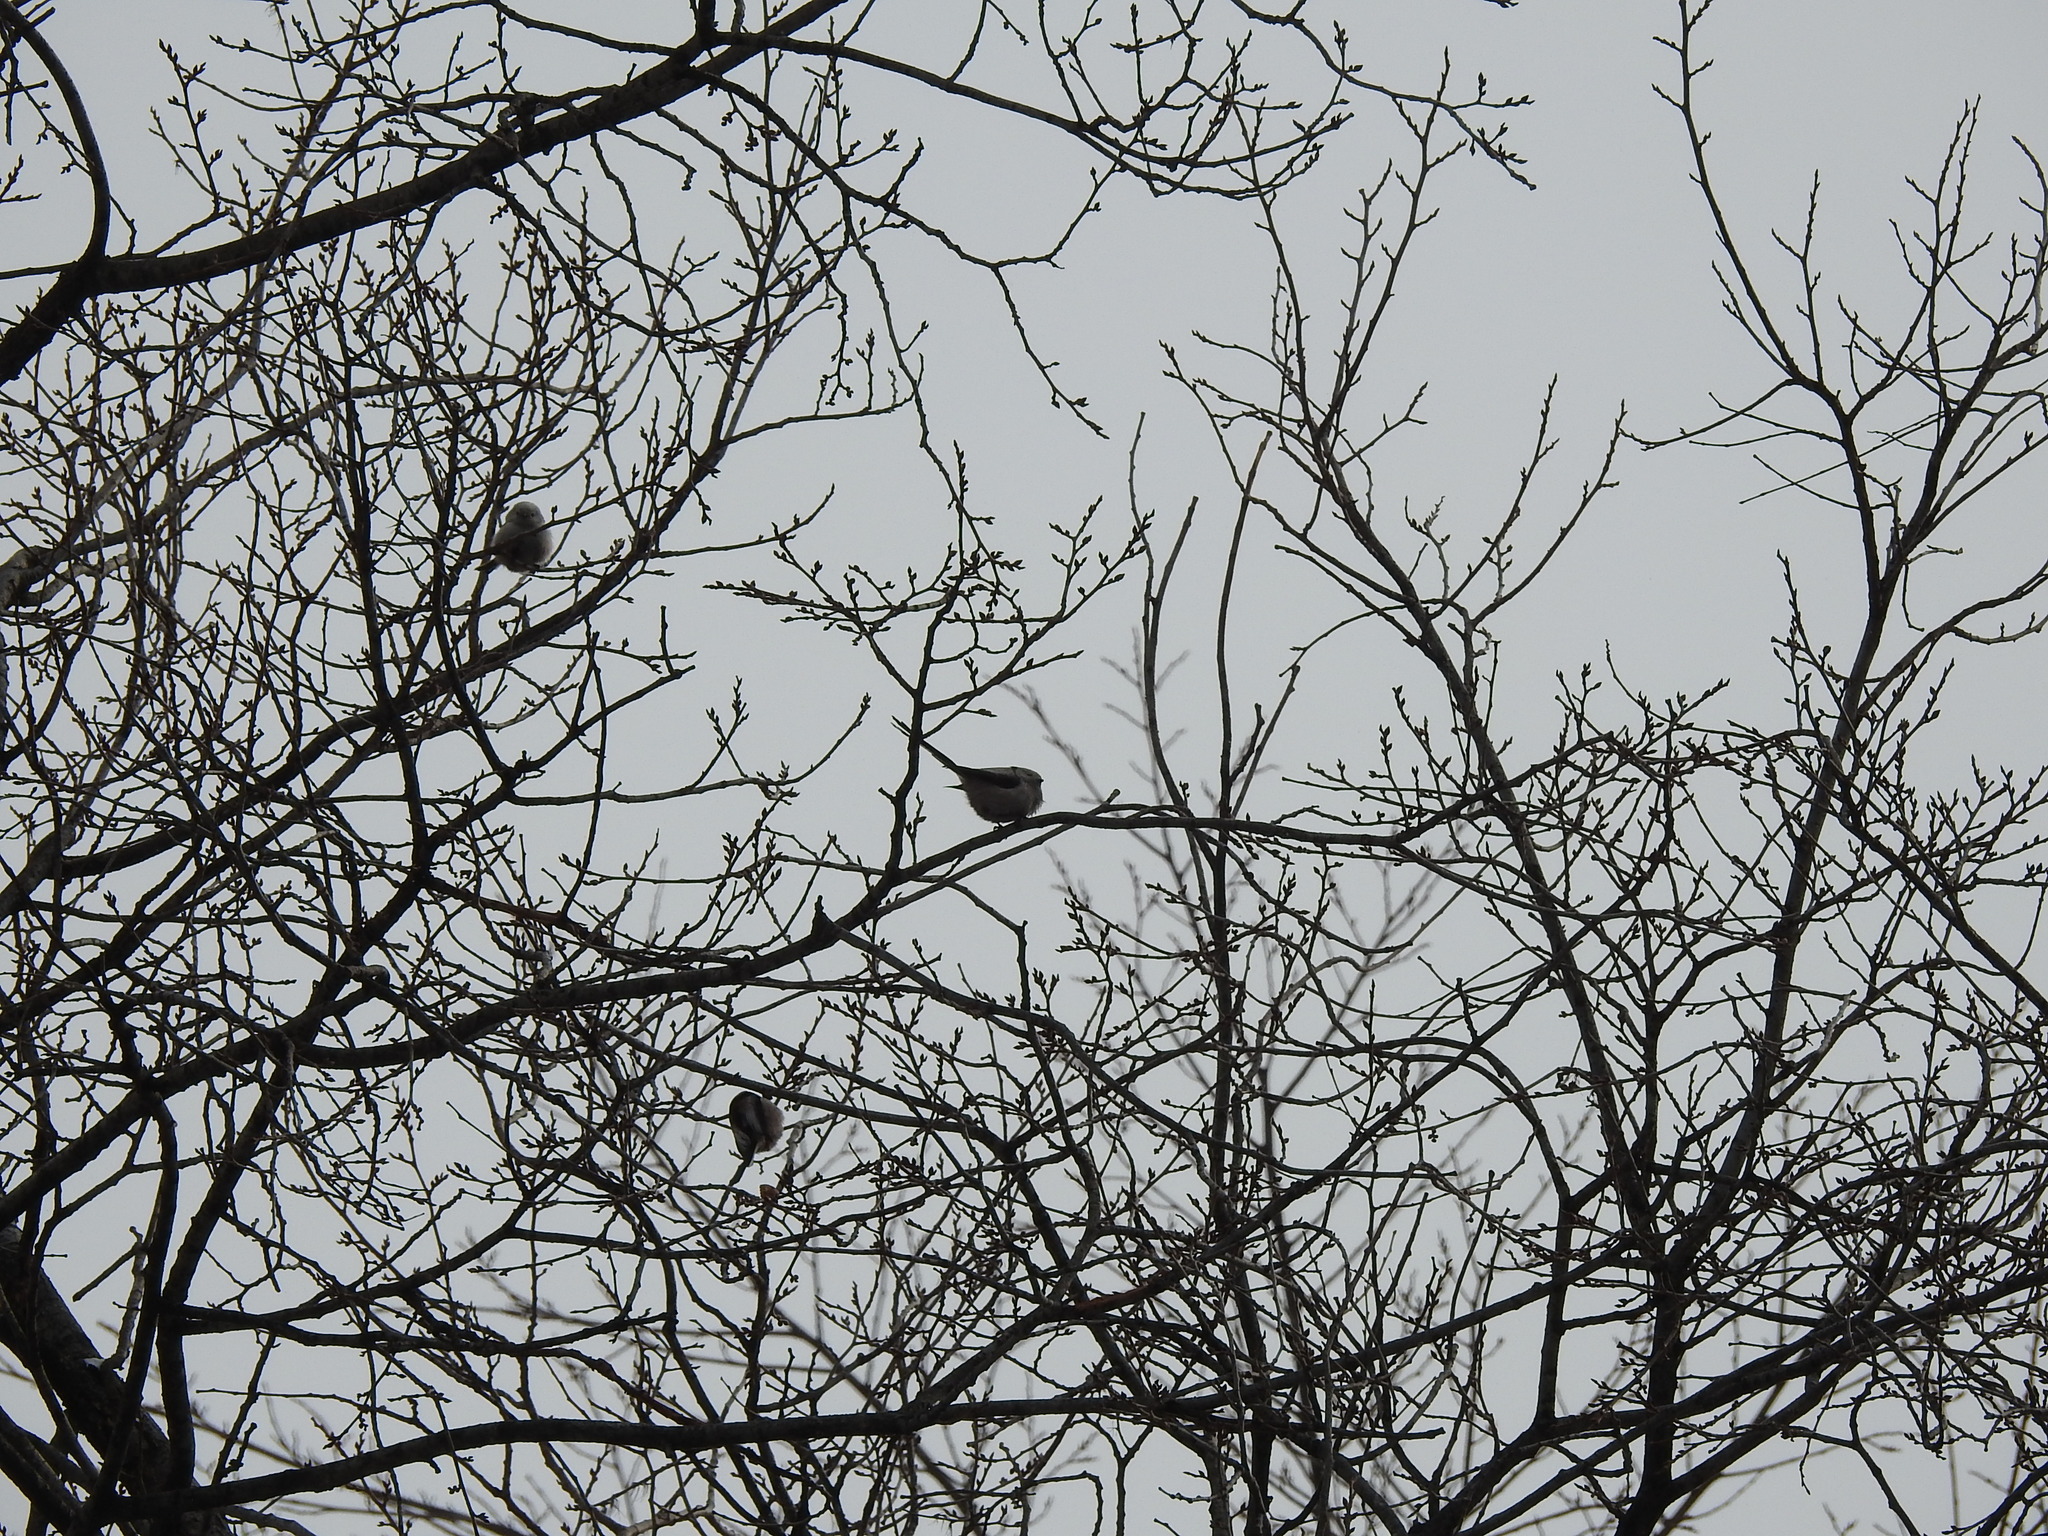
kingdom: Animalia
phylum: Chordata
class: Aves
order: Passeriformes
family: Aegithalidae
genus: Aegithalos
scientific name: Aegithalos caudatus
